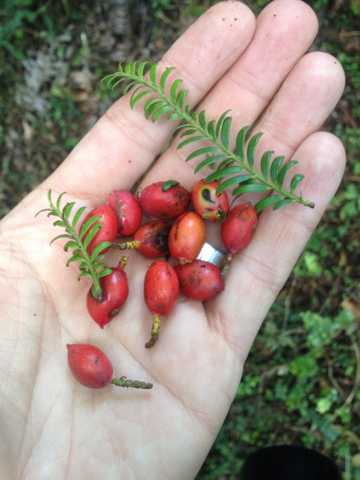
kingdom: Plantae
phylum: Tracheophyta
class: Pinopsida
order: Pinales
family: Podocarpaceae
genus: Prumnopitys
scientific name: Prumnopitys ferruginea
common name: Brown pine
